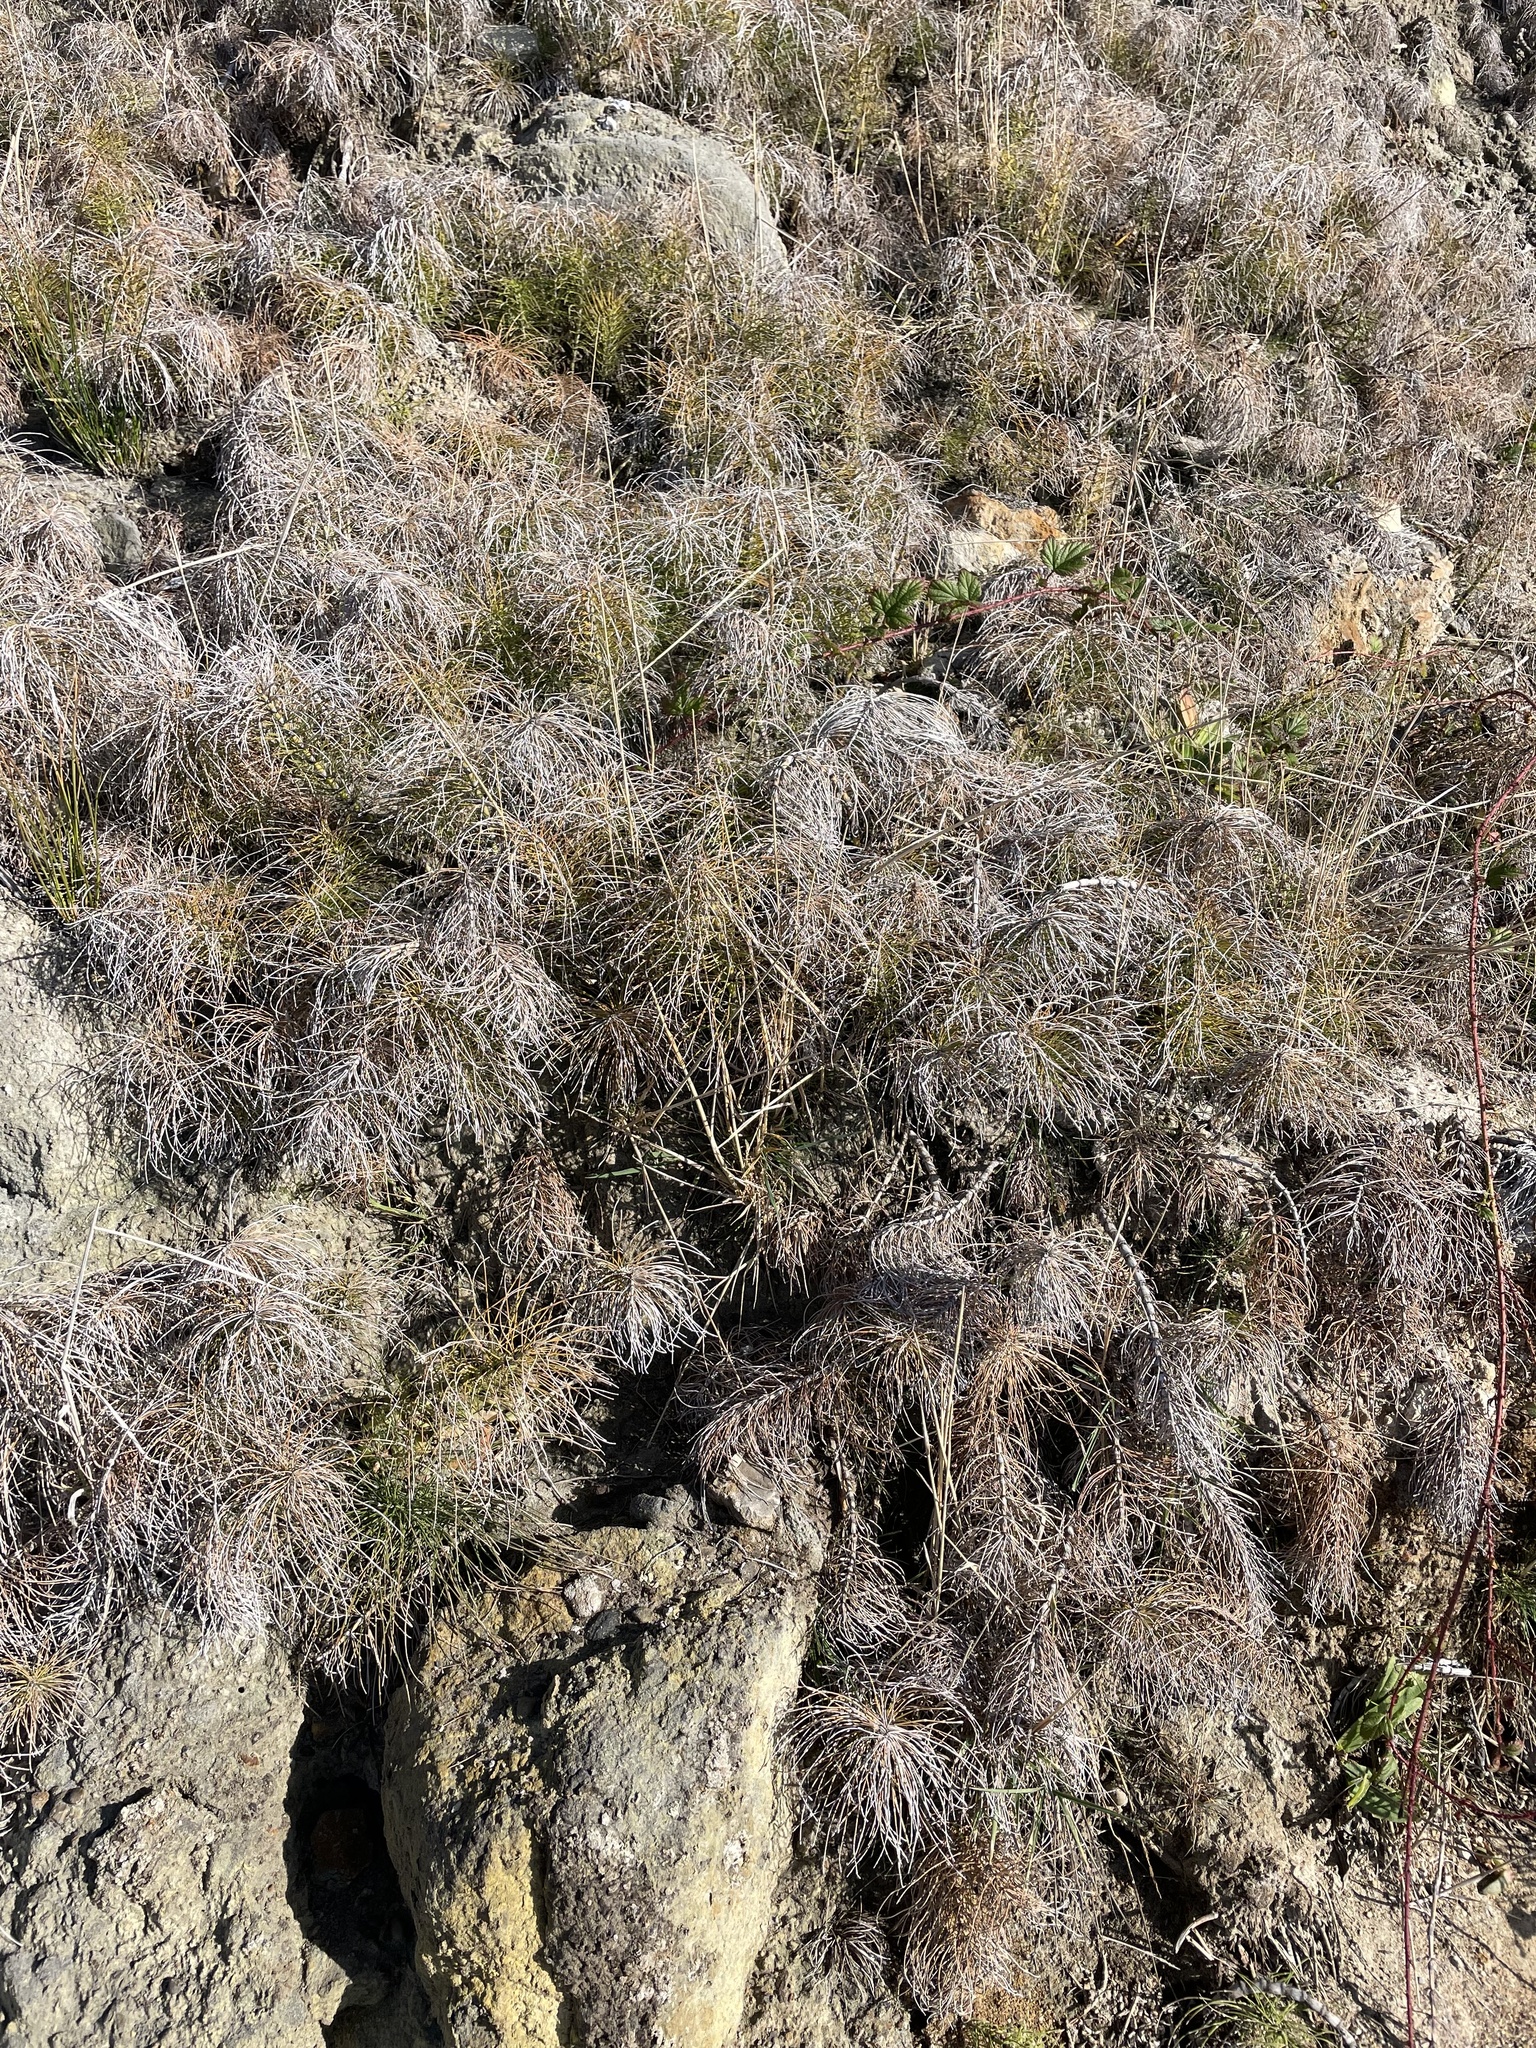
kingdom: Plantae
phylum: Tracheophyta
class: Polypodiopsida
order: Equisetales
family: Equisetaceae
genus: Equisetum
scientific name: Equisetum braunii
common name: Braun's horsetail
